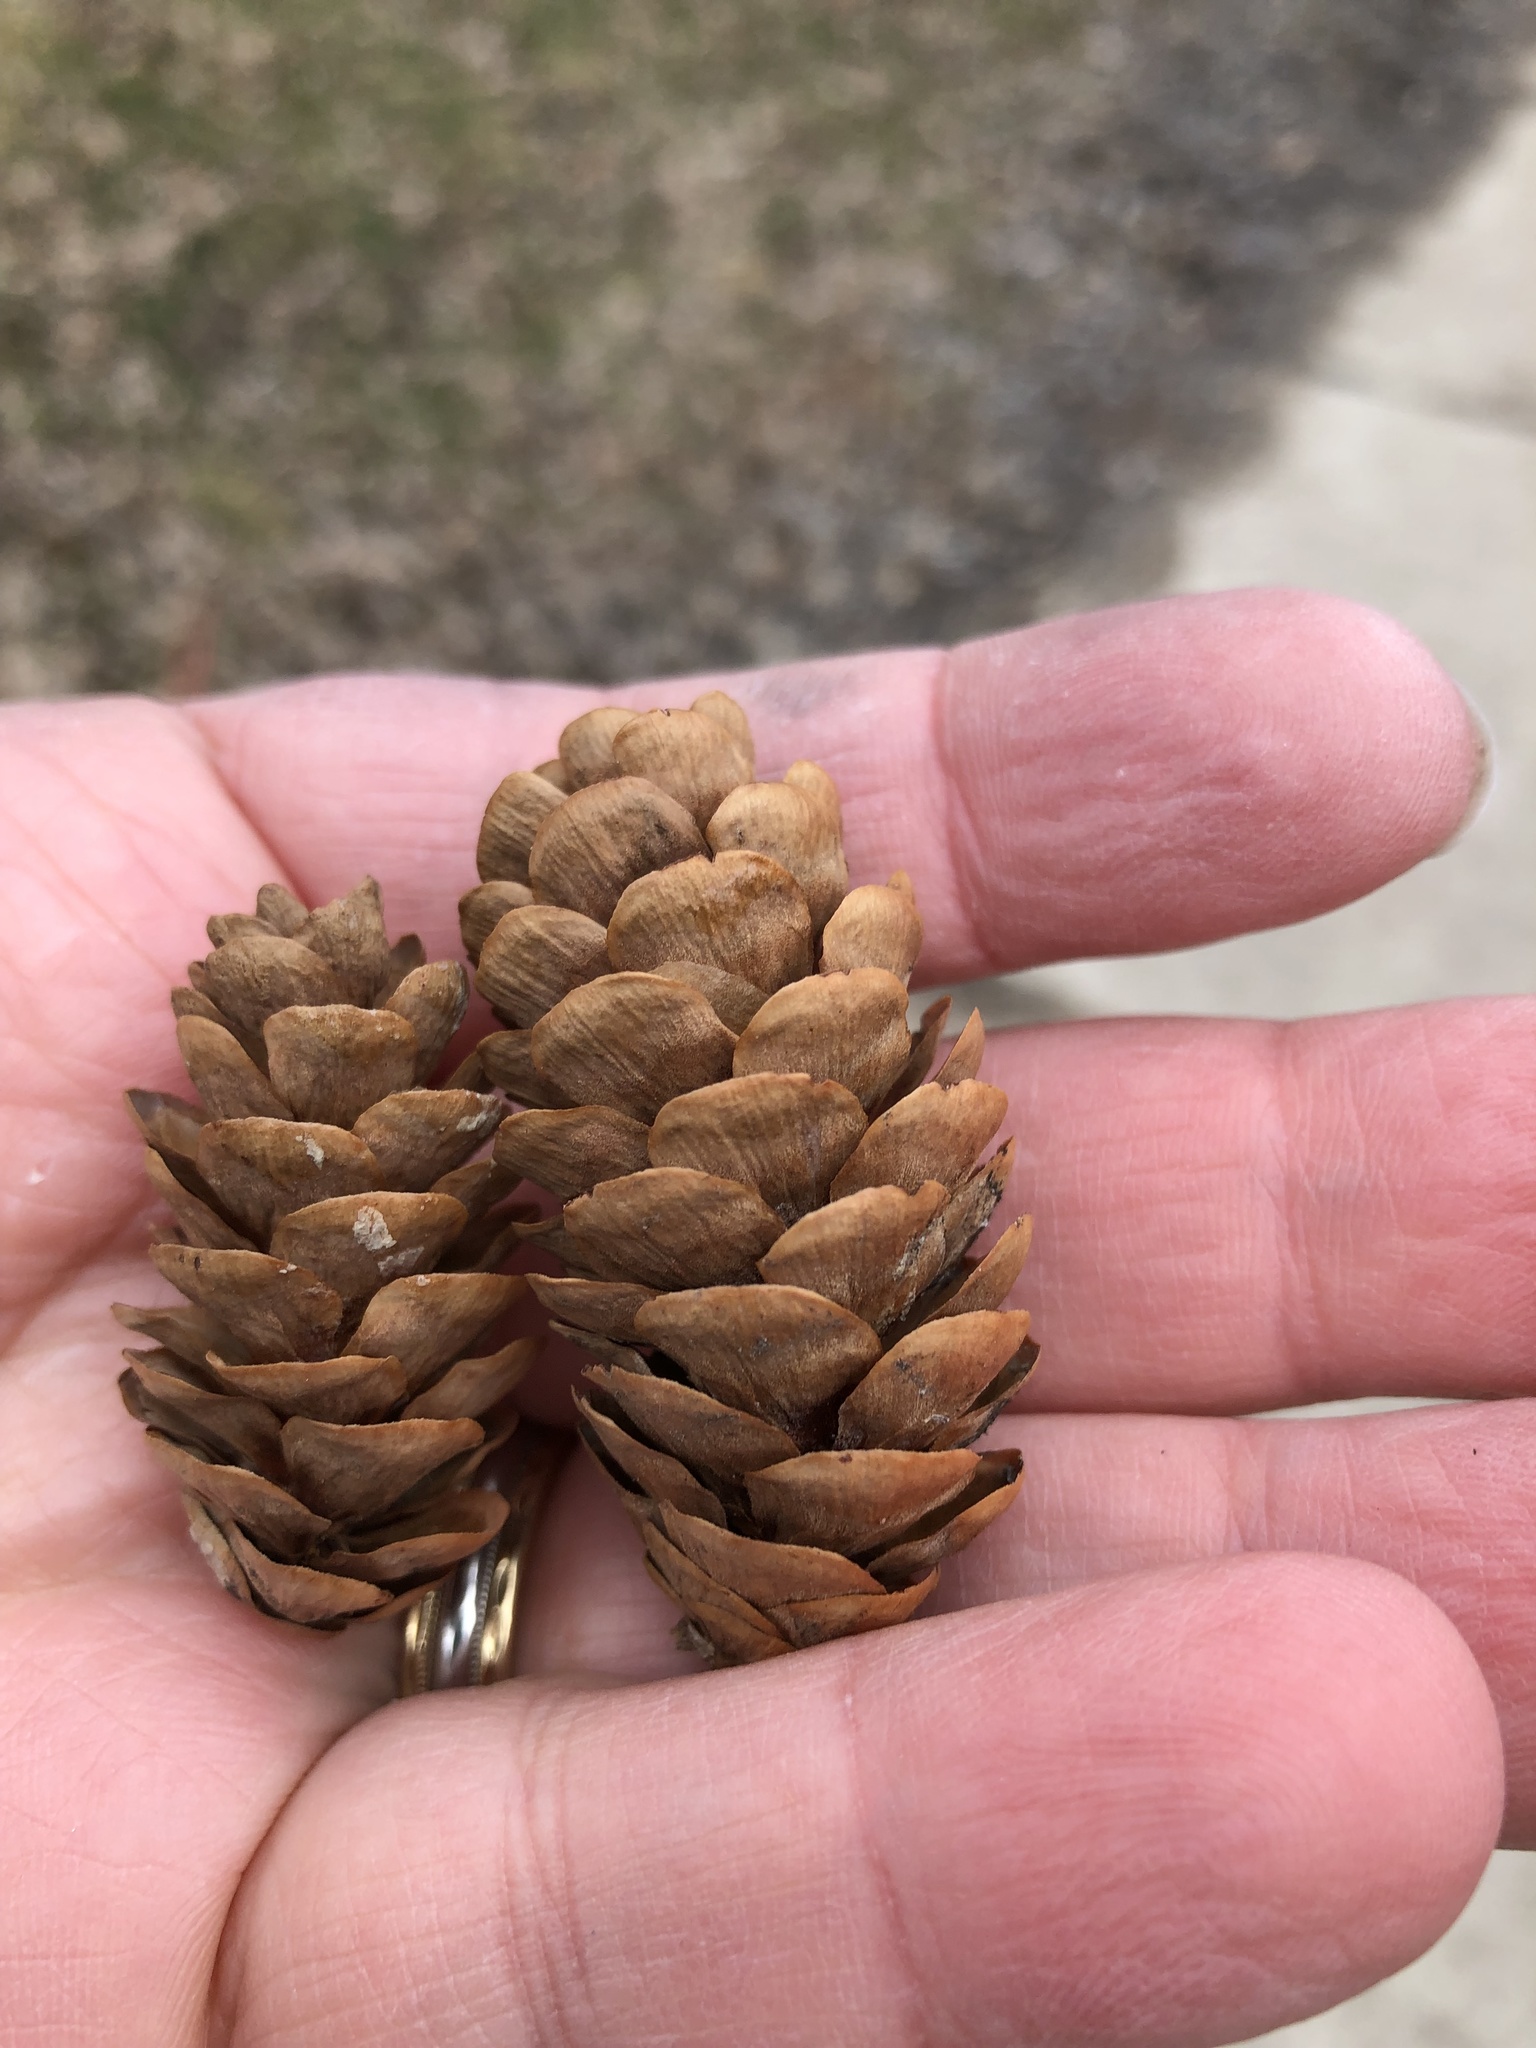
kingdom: Plantae
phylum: Tracheophyta
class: Pinopsida
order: Pinales
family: Pinaceae
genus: Picea
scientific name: Picea glauca
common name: White spruce
